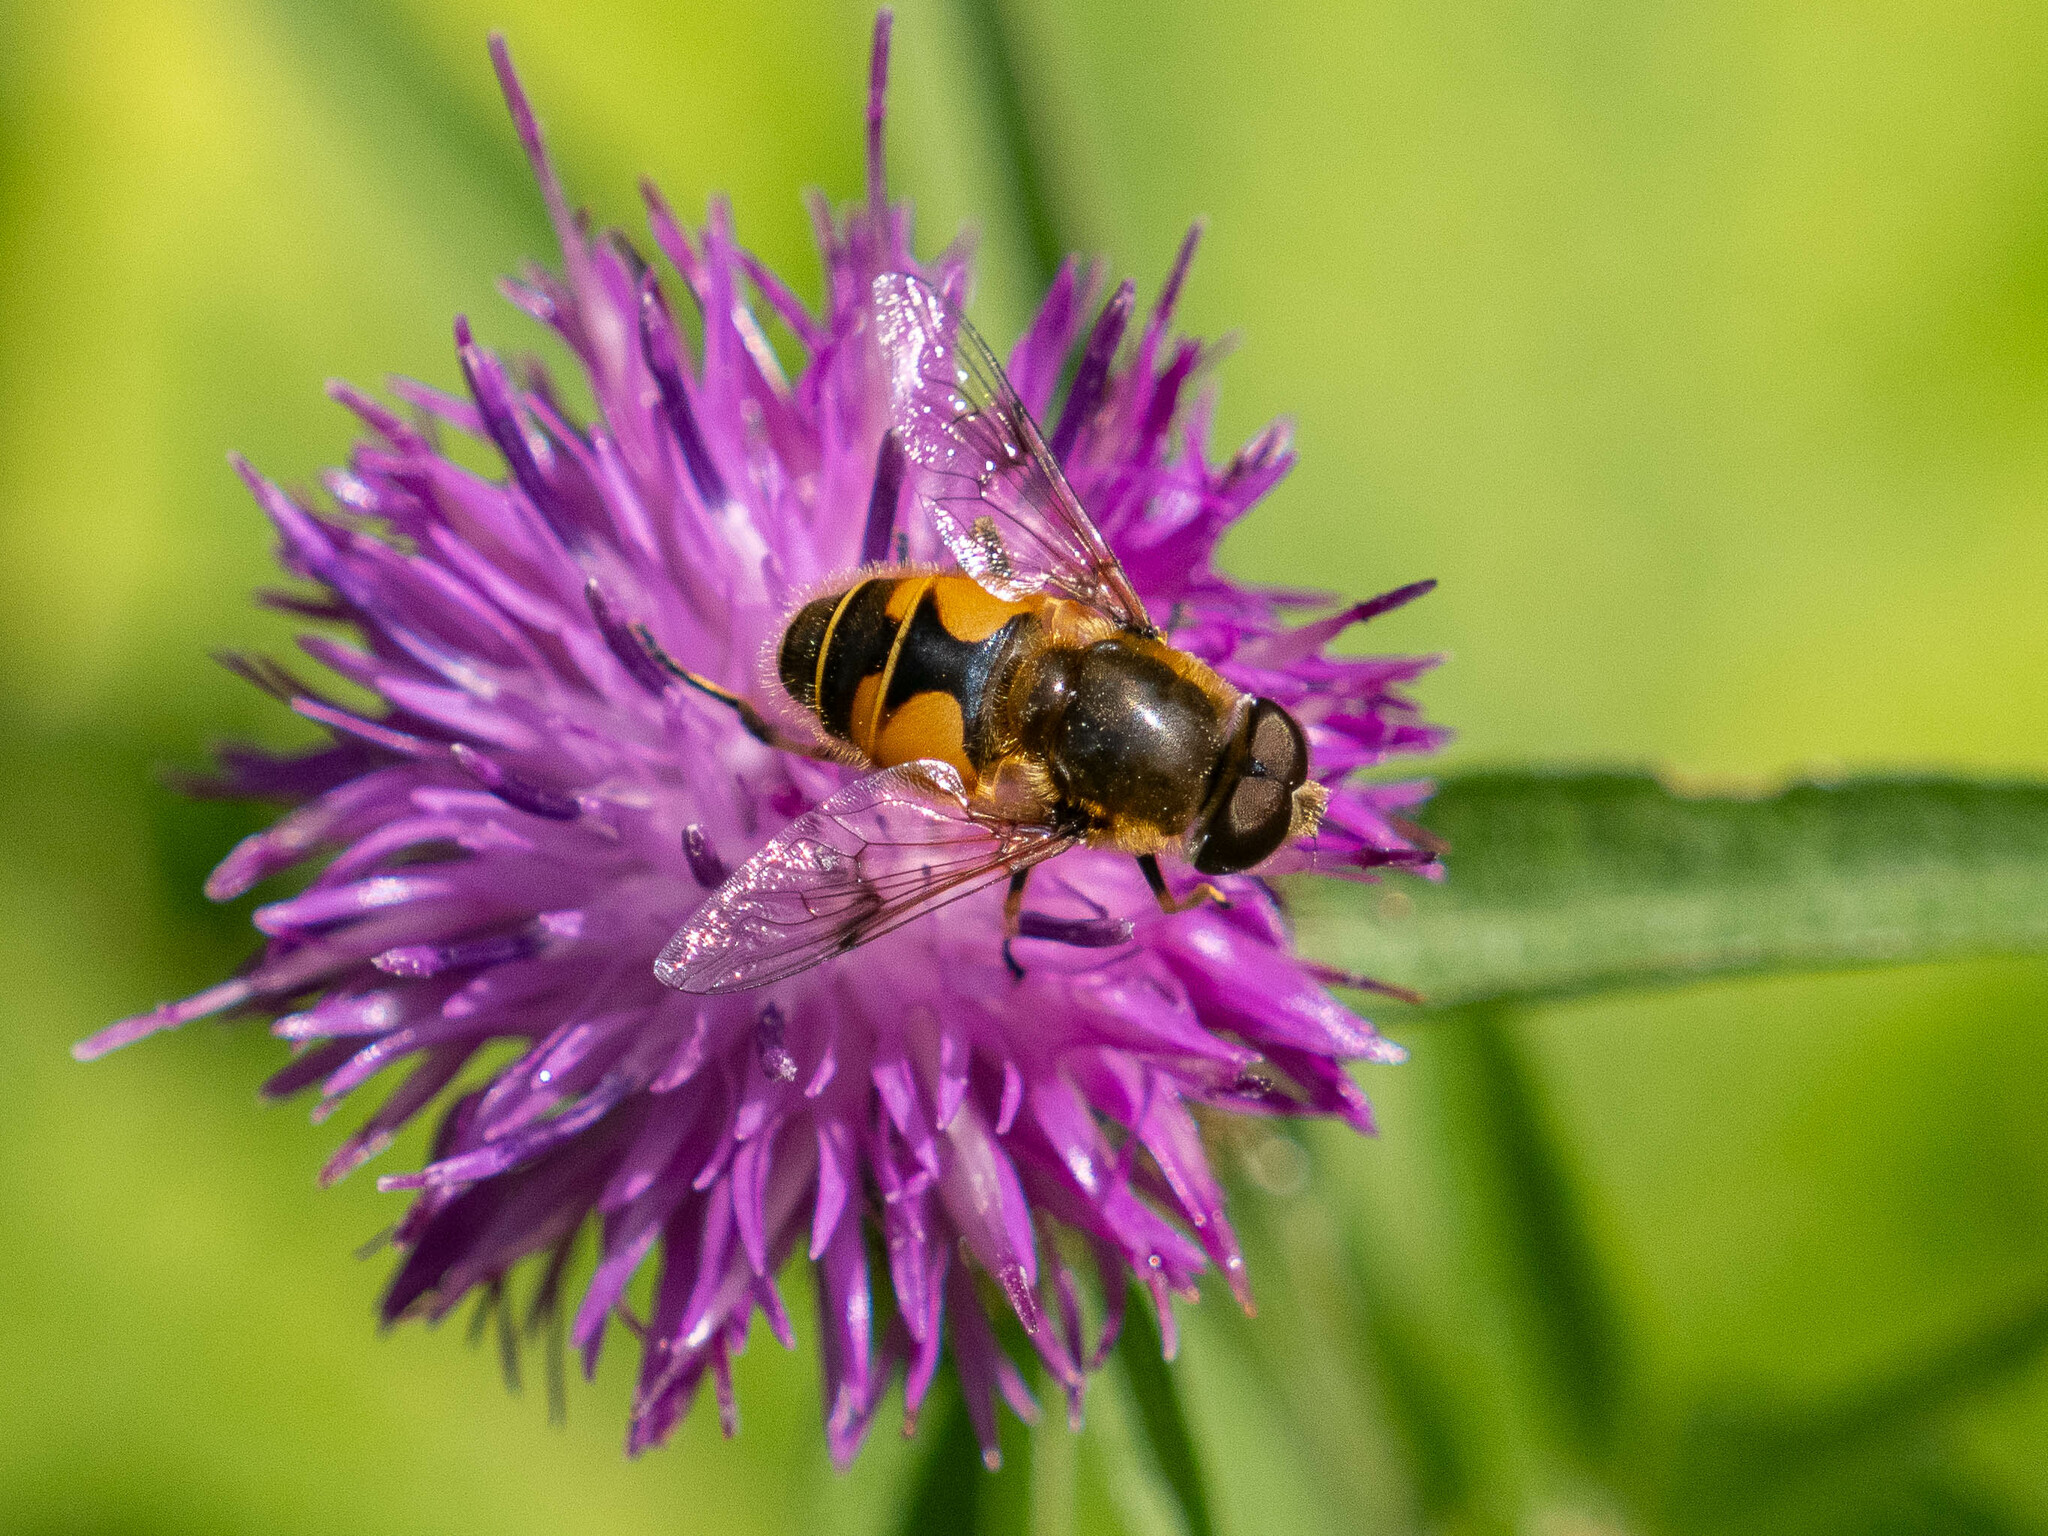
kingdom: Animalia
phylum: Arthropoda
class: Insecta
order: Diptera
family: Syrphidae
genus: Cheilosia
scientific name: Cheilosia morio
